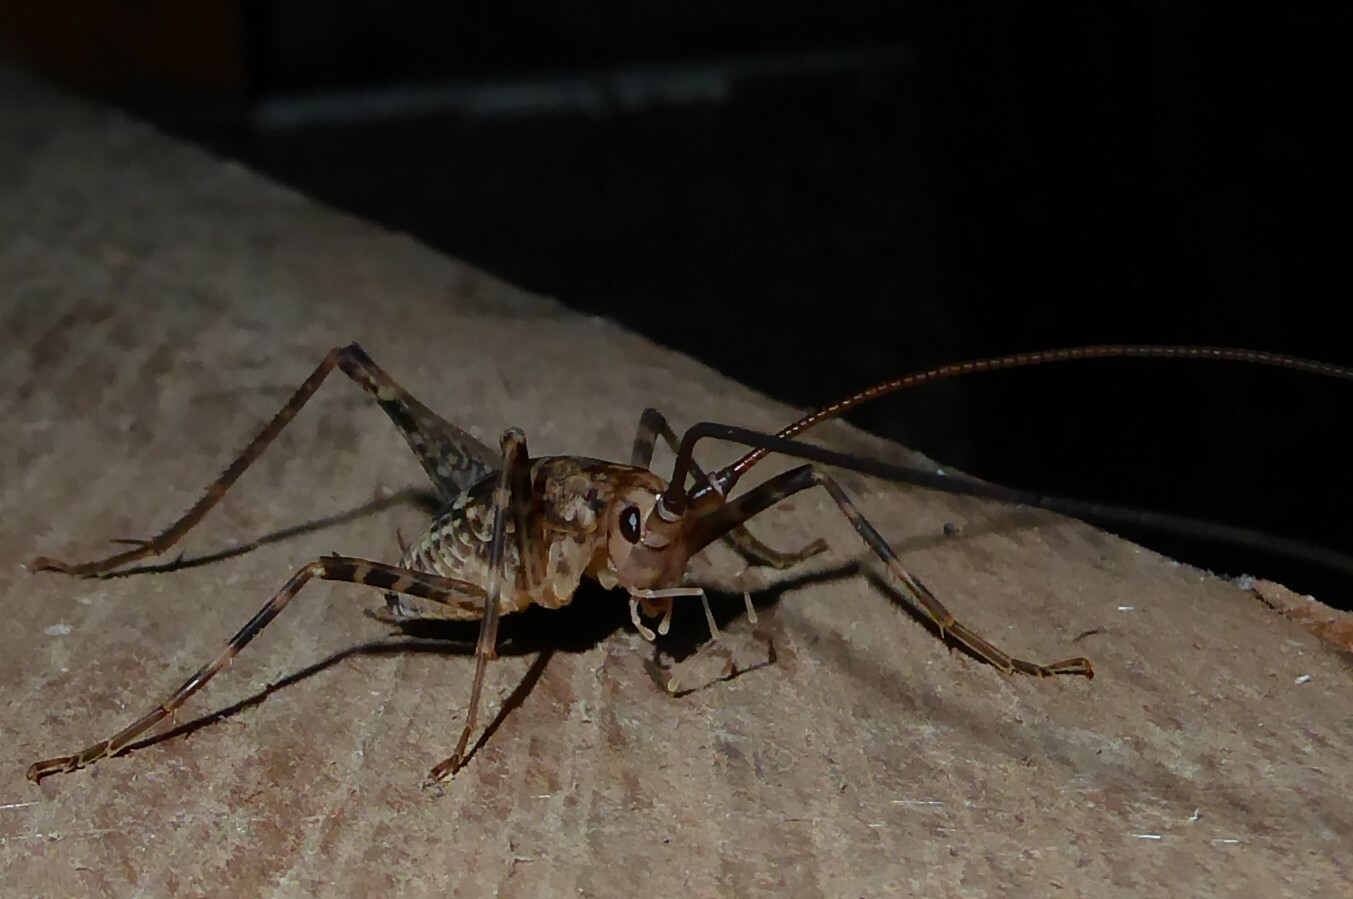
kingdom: Animalia
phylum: Arthropoda
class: Insecta
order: Orthoptera
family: Rhaphidophoridae
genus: Pleioplectron
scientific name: Pleioplectron simplex
